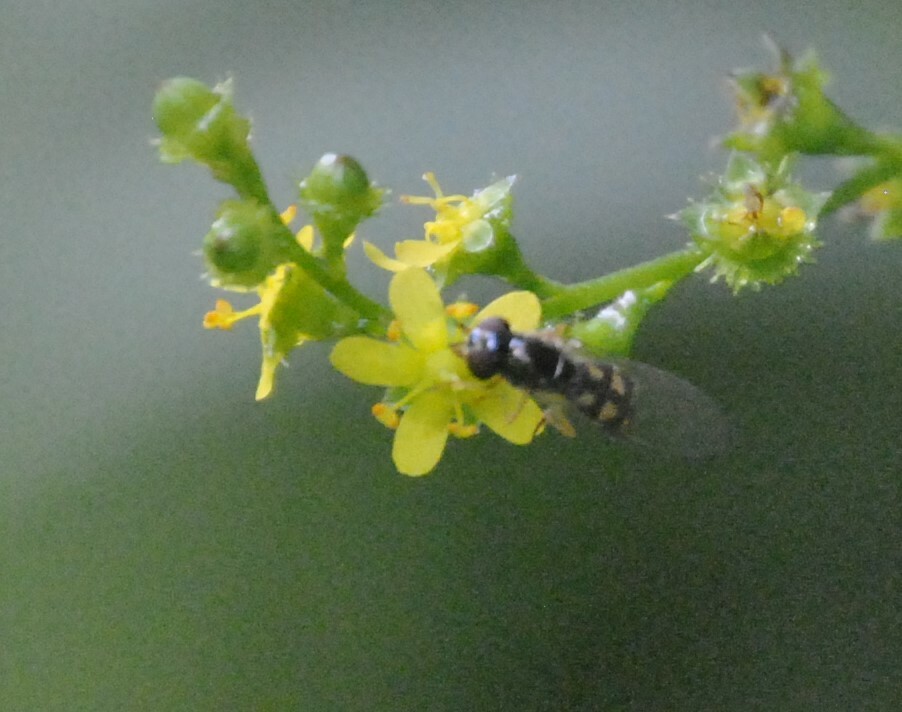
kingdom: Animalia
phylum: Arthropoda
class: Insecta
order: Diptera
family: Syrphidae
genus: Melanostoma
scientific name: Melanostoma mellina
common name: Hover fly
